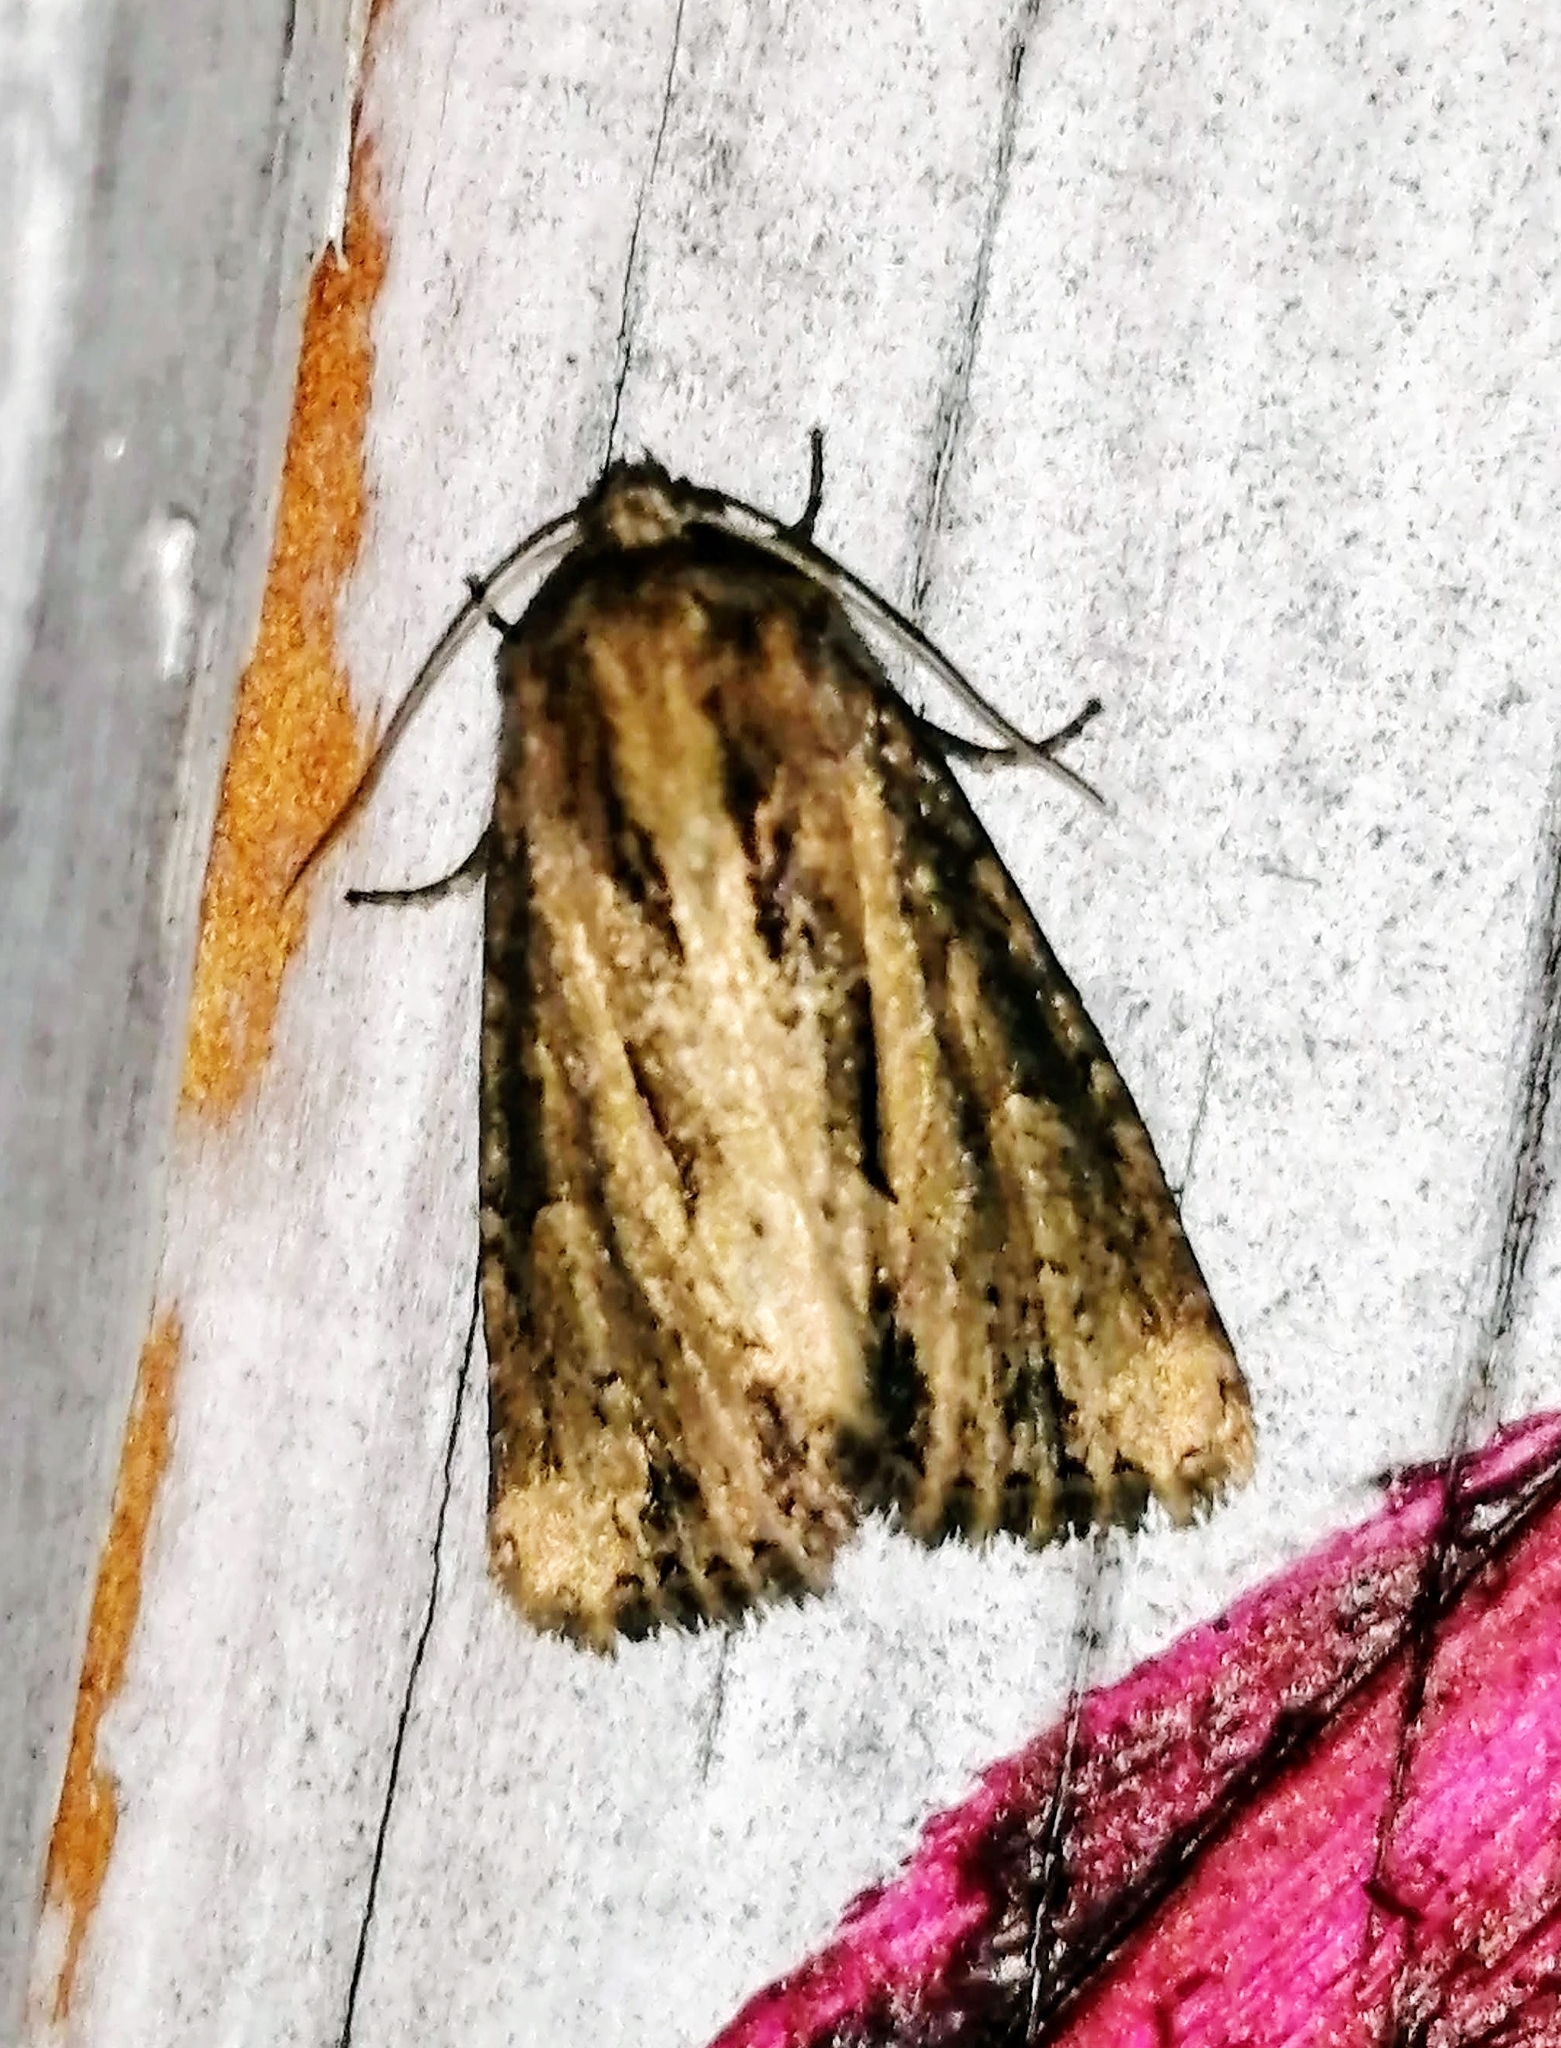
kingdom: Animalia
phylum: Arthropoda
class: Insecta
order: Lepidoptera
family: Noctuidae
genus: Xylomoia
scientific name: Xylomoia chagnoni
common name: Reed canary grass borer moth
